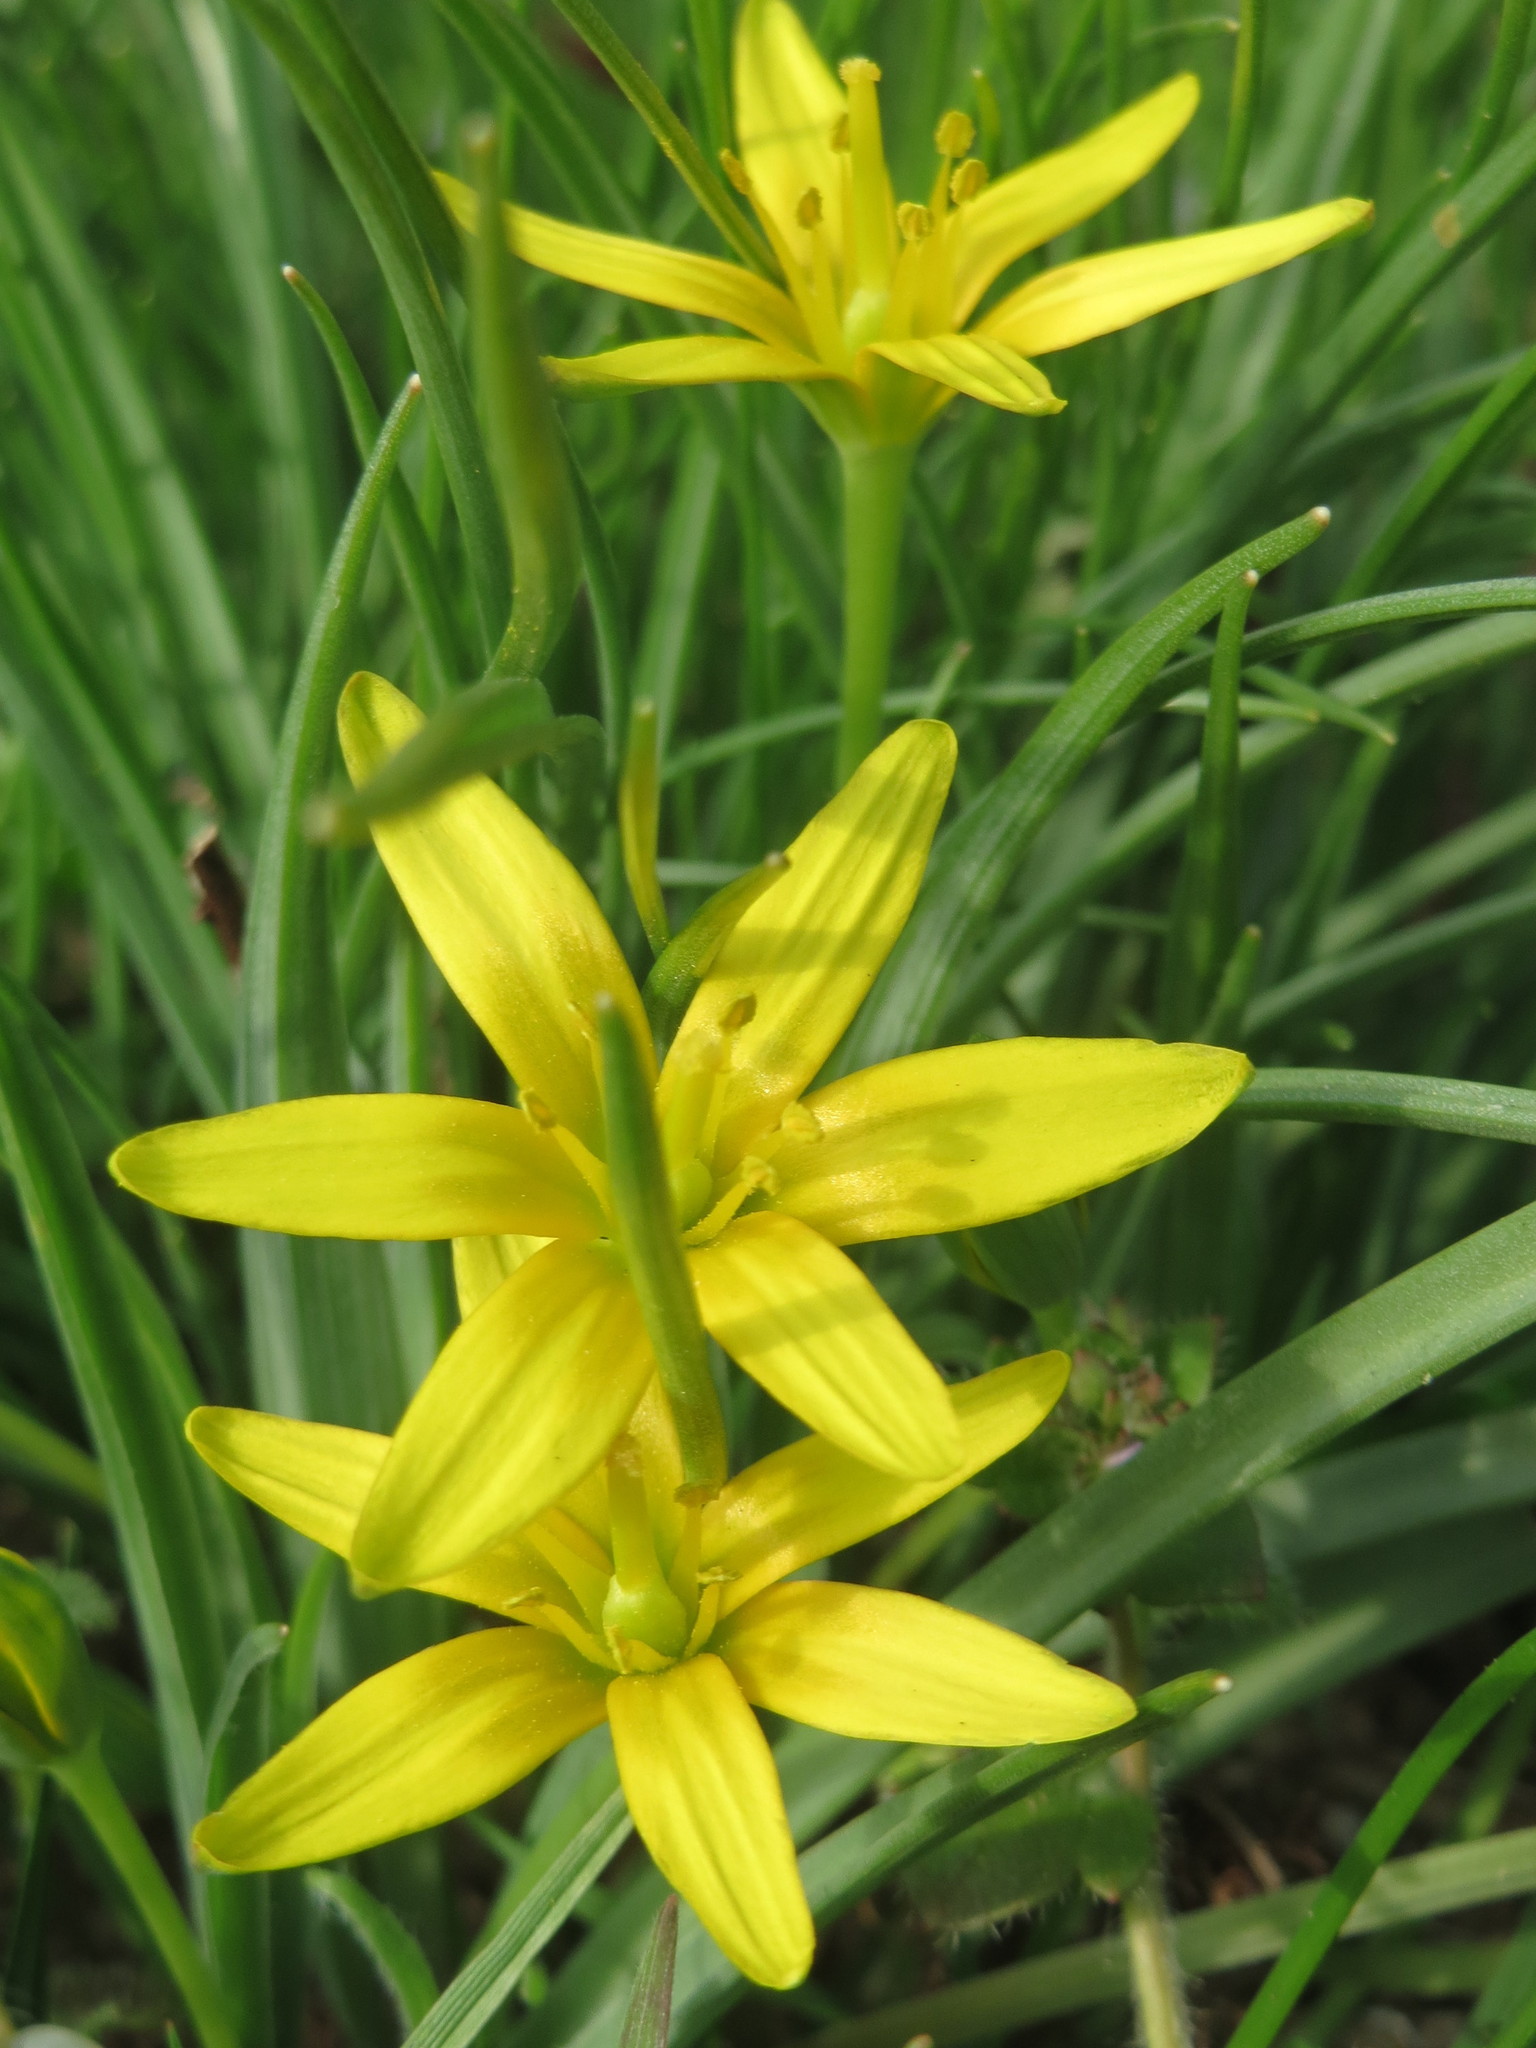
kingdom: Plantae
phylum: Tracheophyta
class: Liliopsida
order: Liliales
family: Liliaceae
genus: Gagea
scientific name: Gagea villosa
